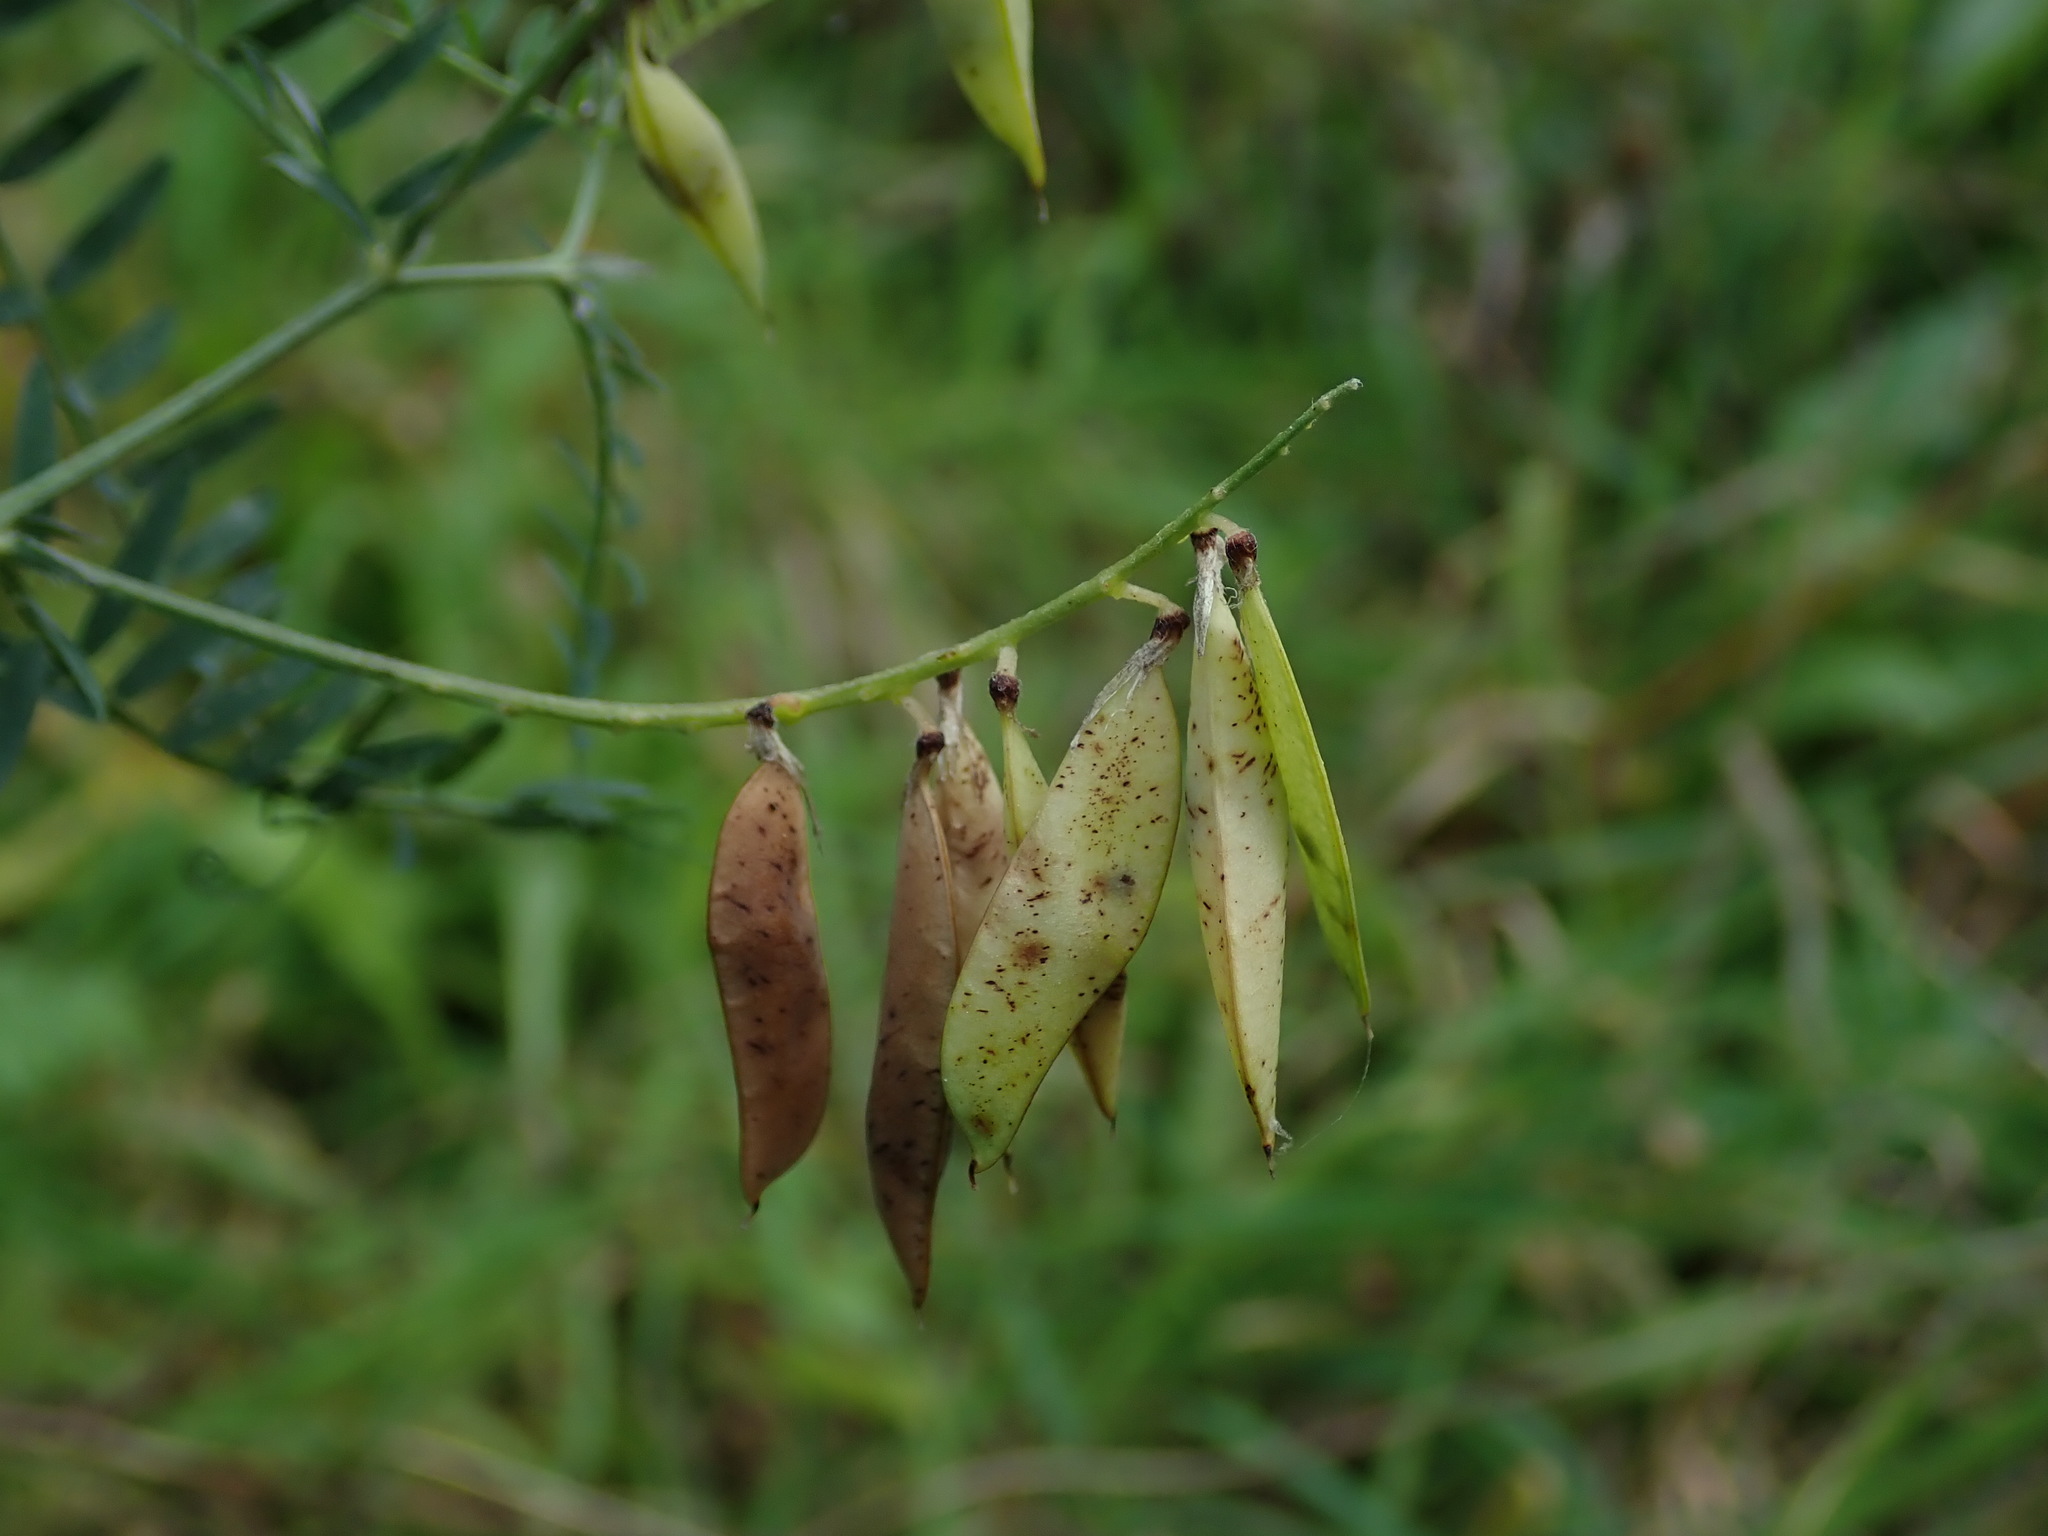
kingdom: Plantae
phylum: Tracheophyta
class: Magnoliopsida
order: Fabales
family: Fabaceae
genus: Vicia
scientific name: Vicia cracca
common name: Bird vetch
